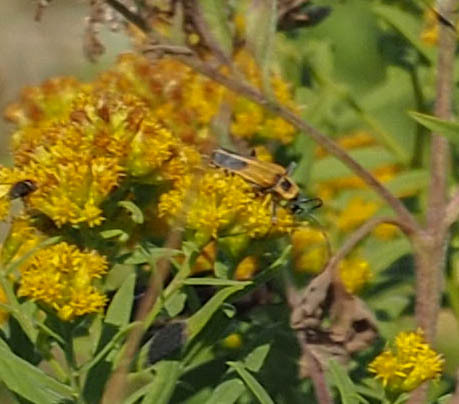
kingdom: Animalia
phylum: Arthropoda
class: Insecta
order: Coleoptera
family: Cantharidae
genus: Chauliognathus
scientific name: Chauliognathus pensylvanicus
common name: Goldenrod soldier beetle
